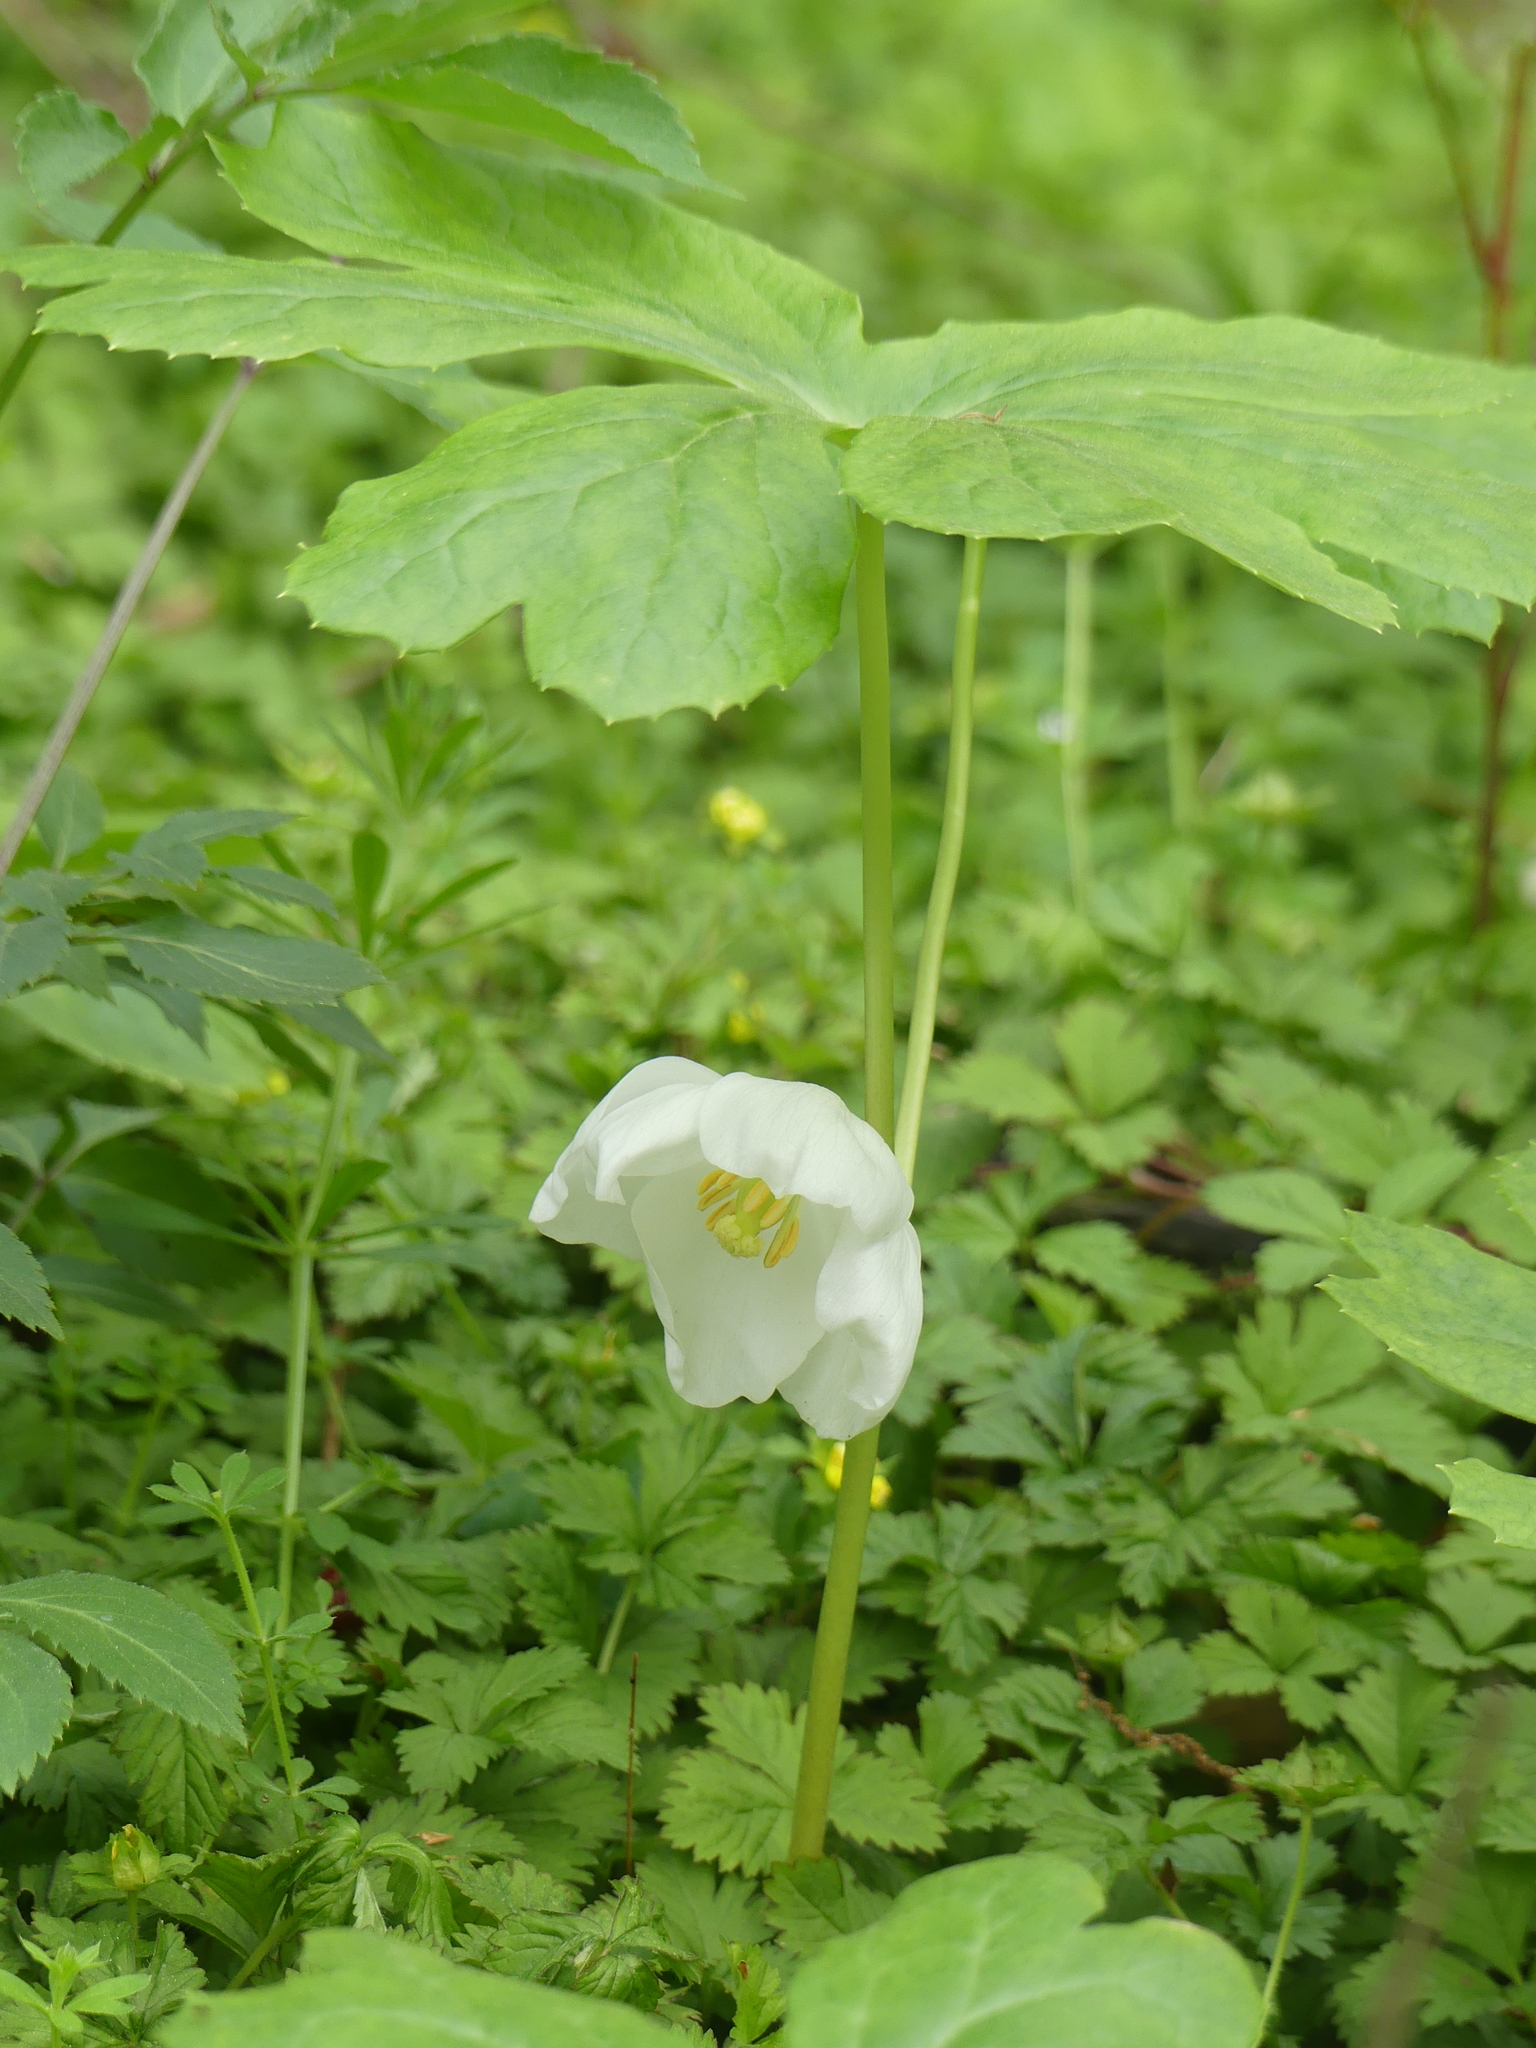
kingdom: Plantae
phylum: Tracheophyta
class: Magnoliopsida
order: Ranunculales
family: Berberidaceae
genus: Podophyllum
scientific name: Podophyllum peltatum
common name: Wild mandrake
